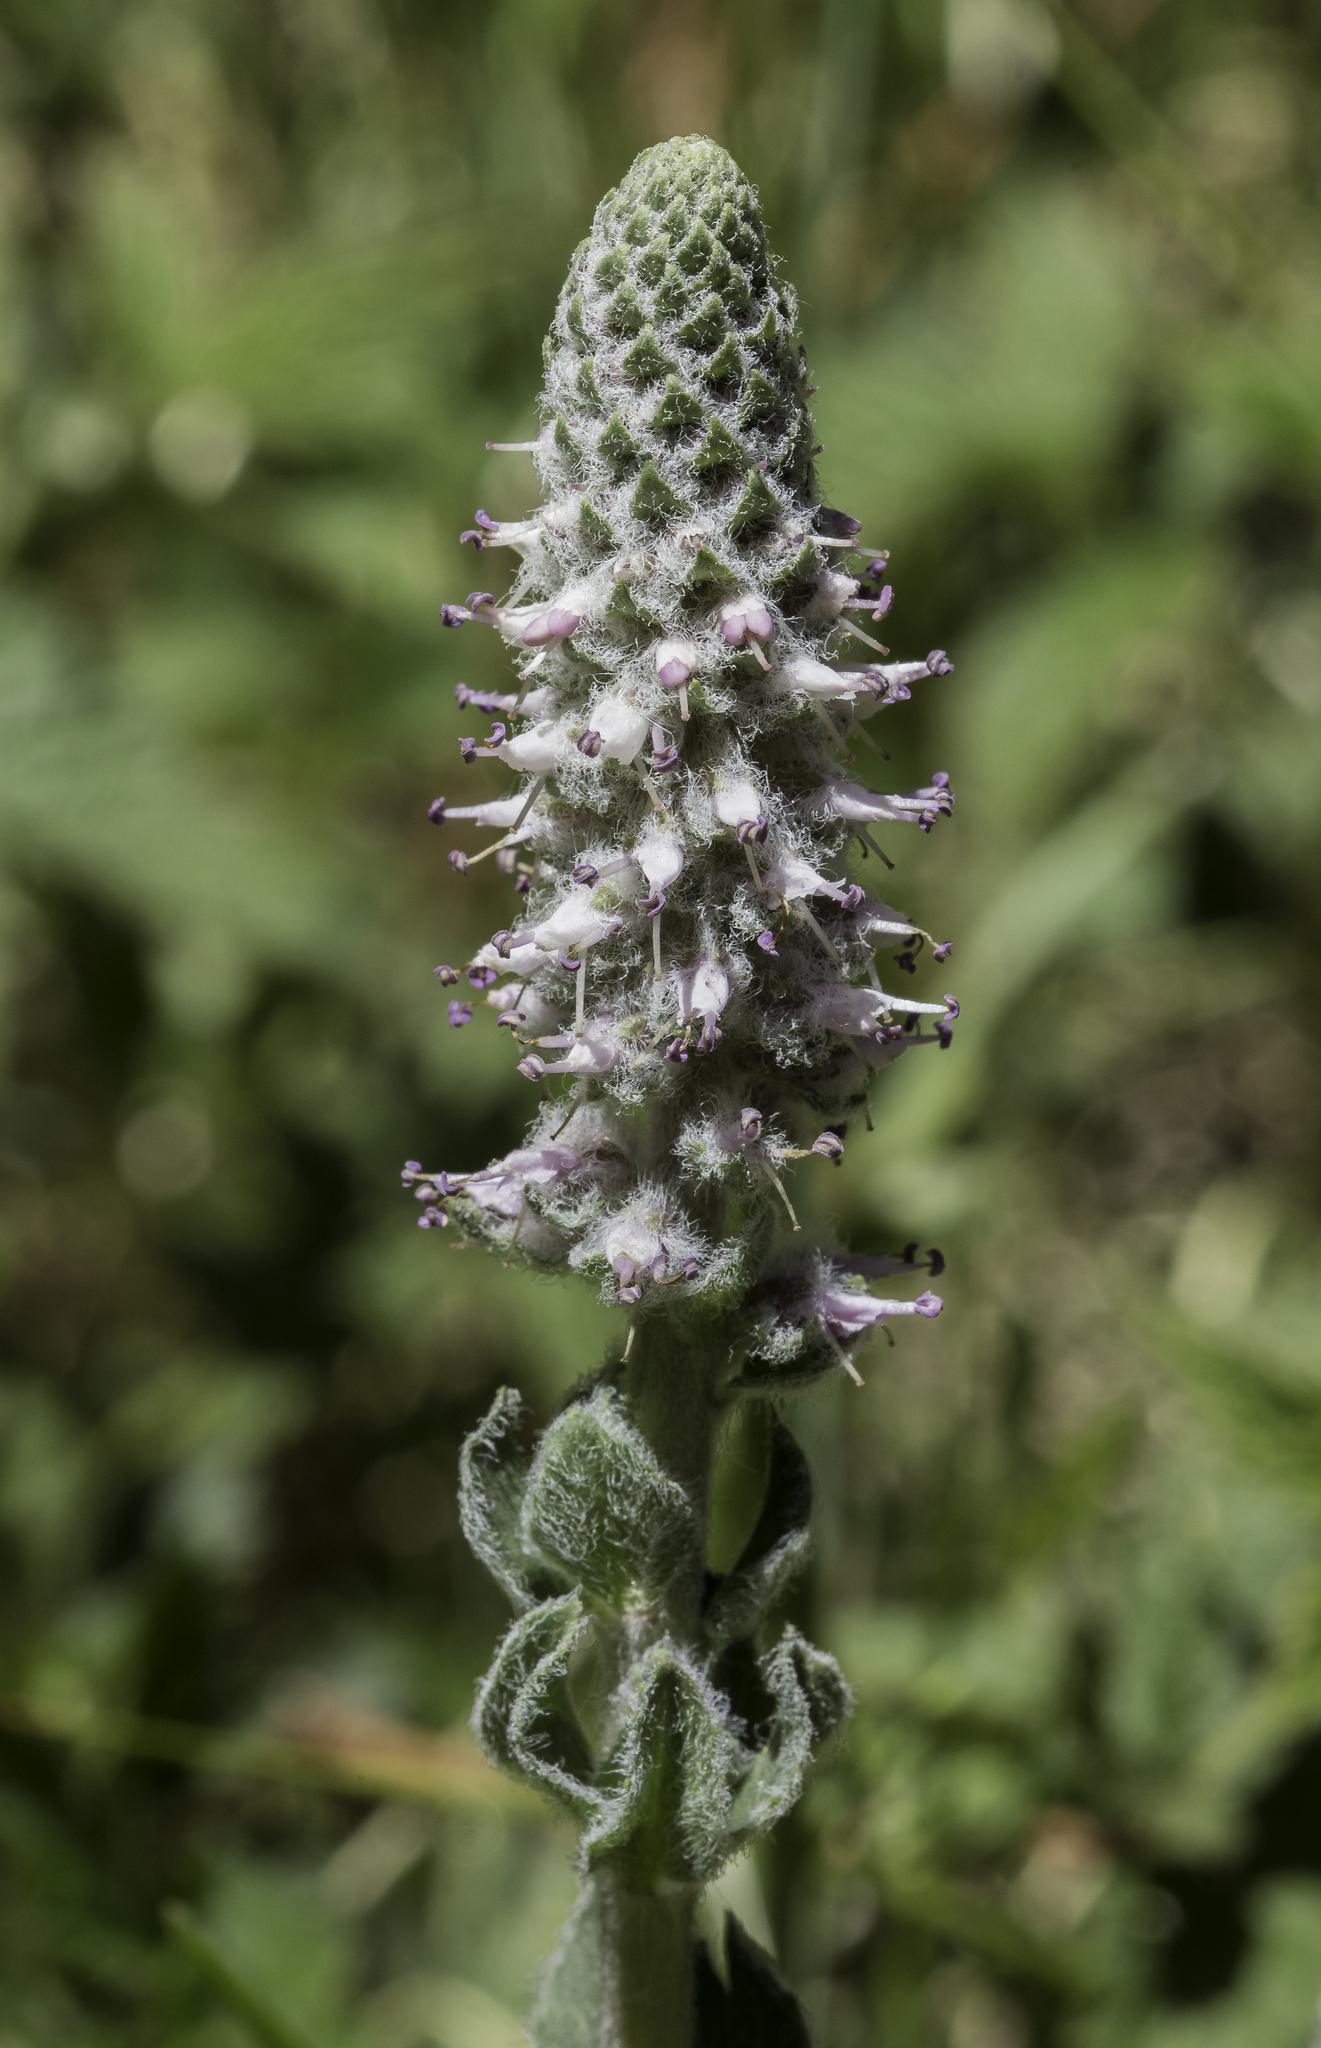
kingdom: Plantae
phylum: Tracheophyta
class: Magnoliopsida
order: Lamiales
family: Plantaginaceae
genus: Veronica
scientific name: Veronica plantaginea
